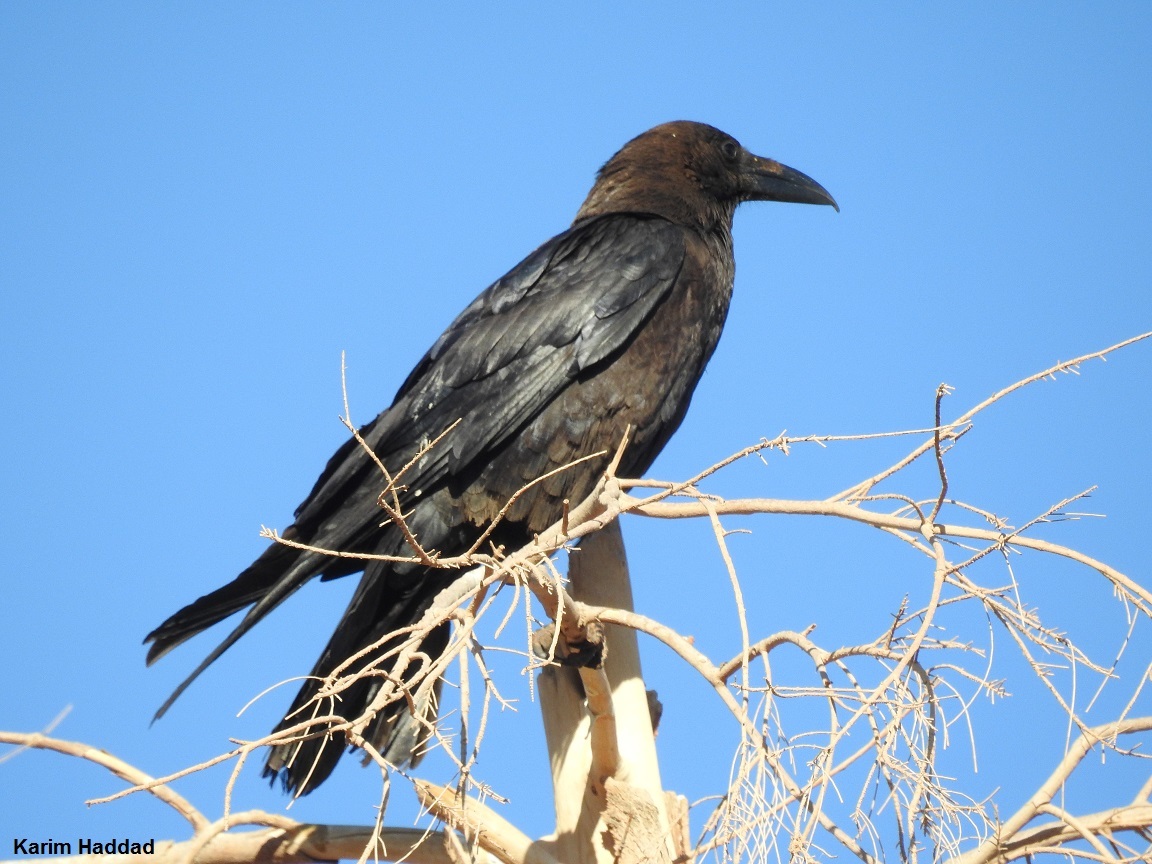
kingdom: Animalia
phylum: Chordata
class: Aves
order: Passeriformes
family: Corvidae
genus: Corvus
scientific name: Corvus ruficollis
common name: Brown-necked raven
